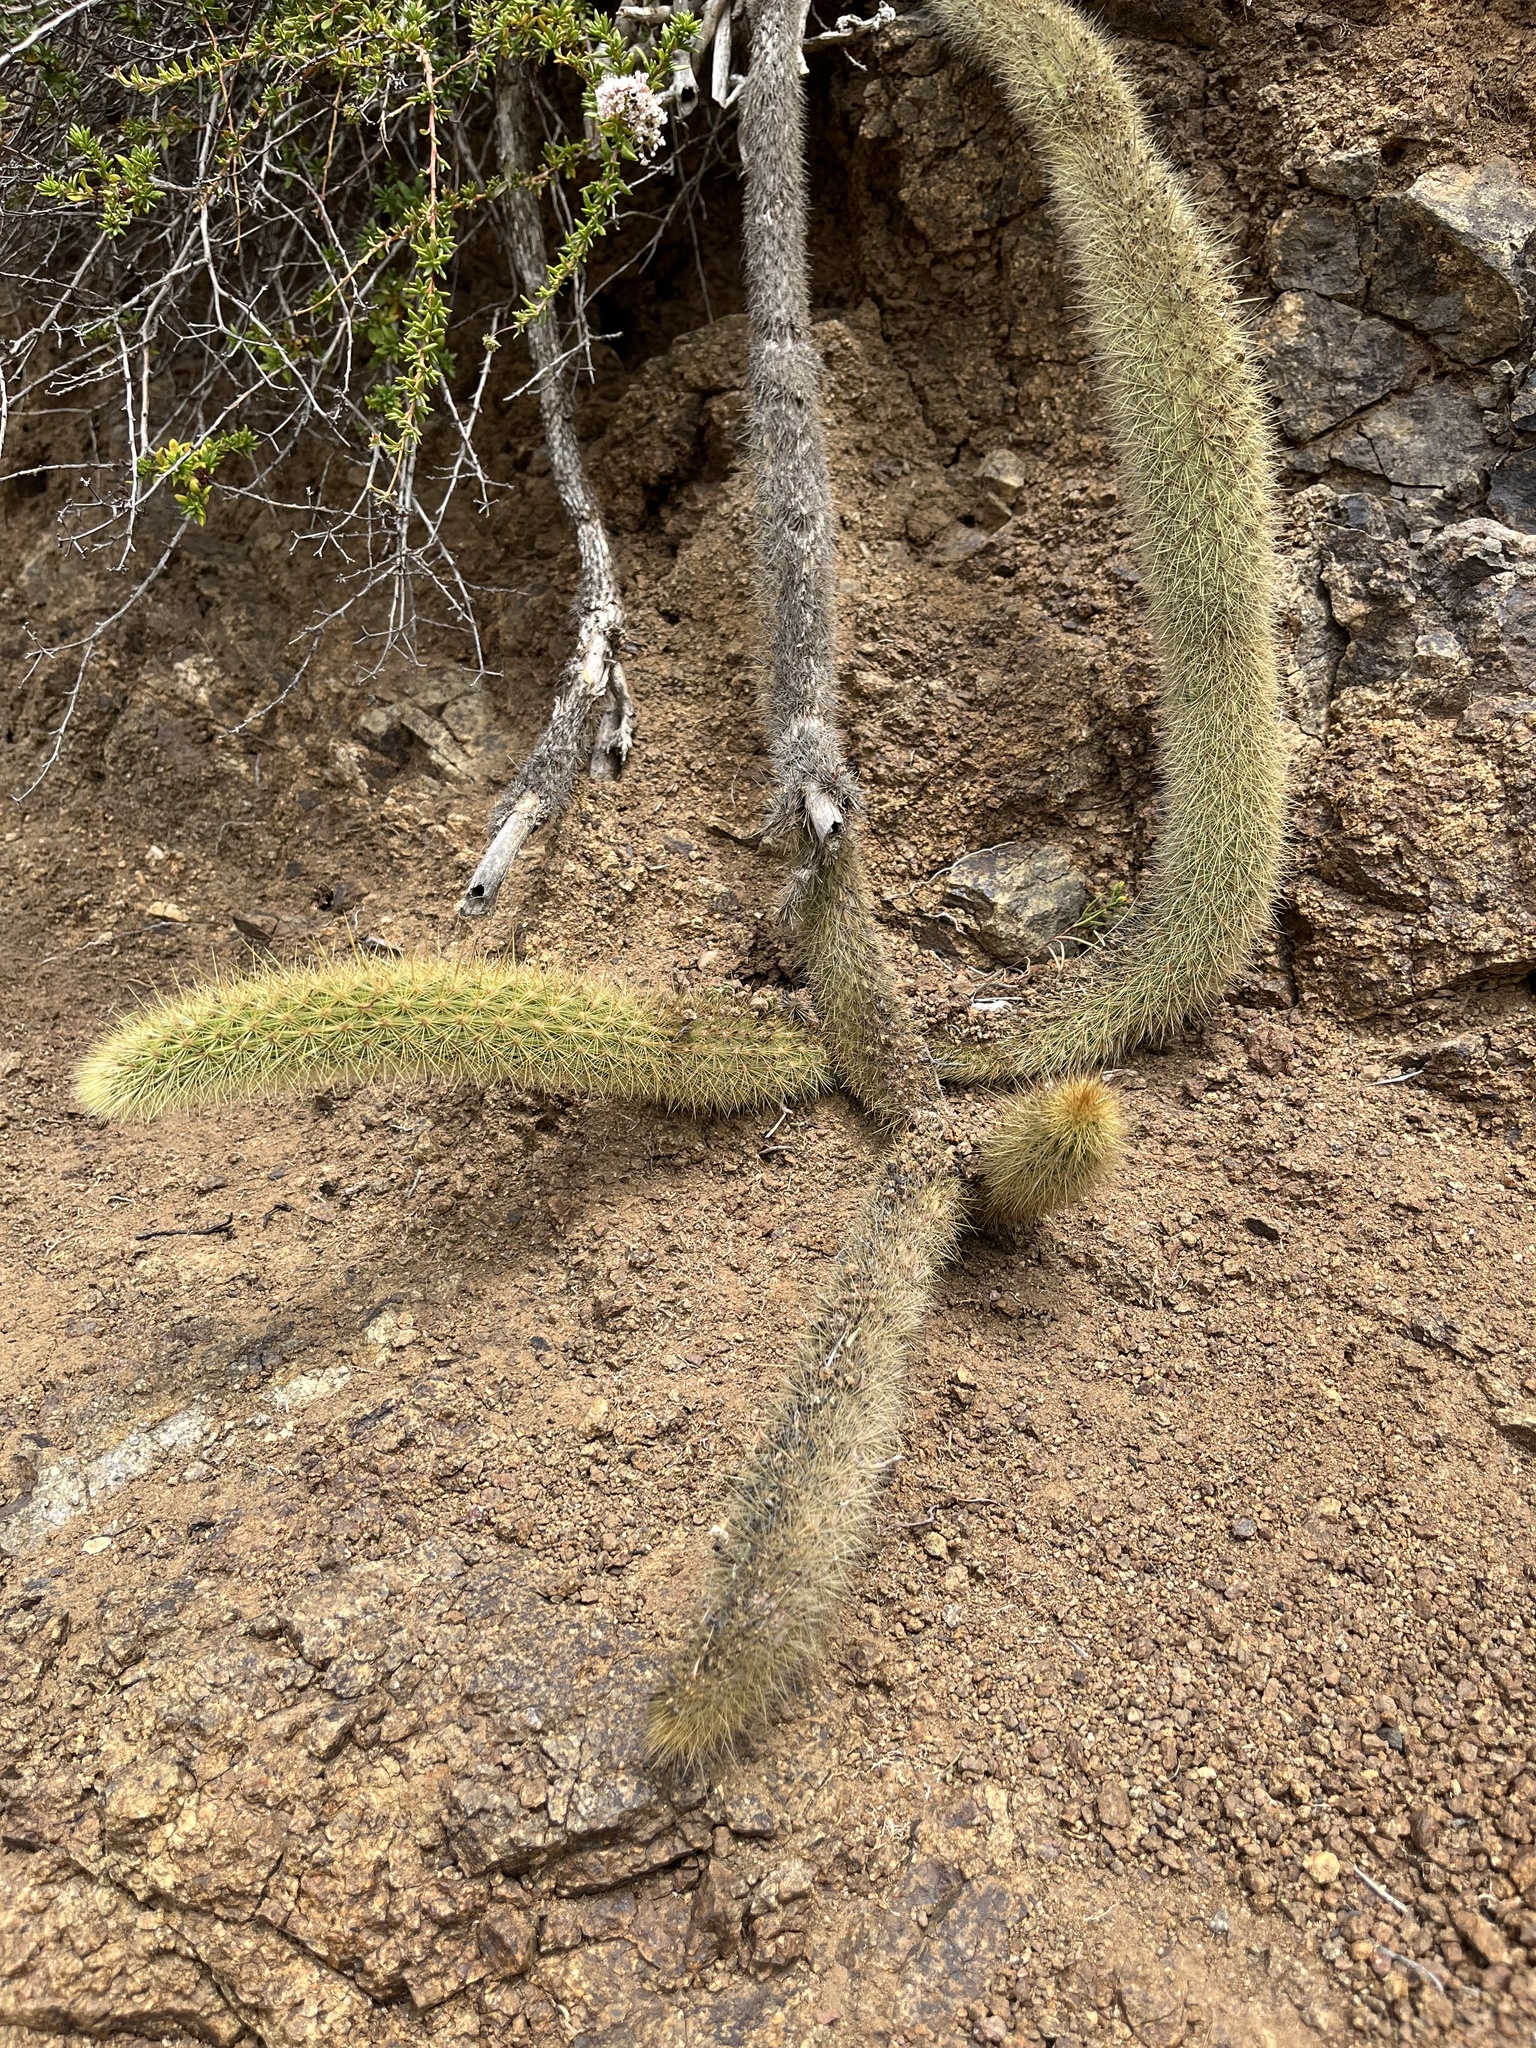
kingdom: Plantae
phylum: Tracheophyta
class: Magnoliopsida
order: Caryophyllales
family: Cactaceae
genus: Bergerocactus
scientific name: Bergerocactus emoryi
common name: Golden snakecactus
